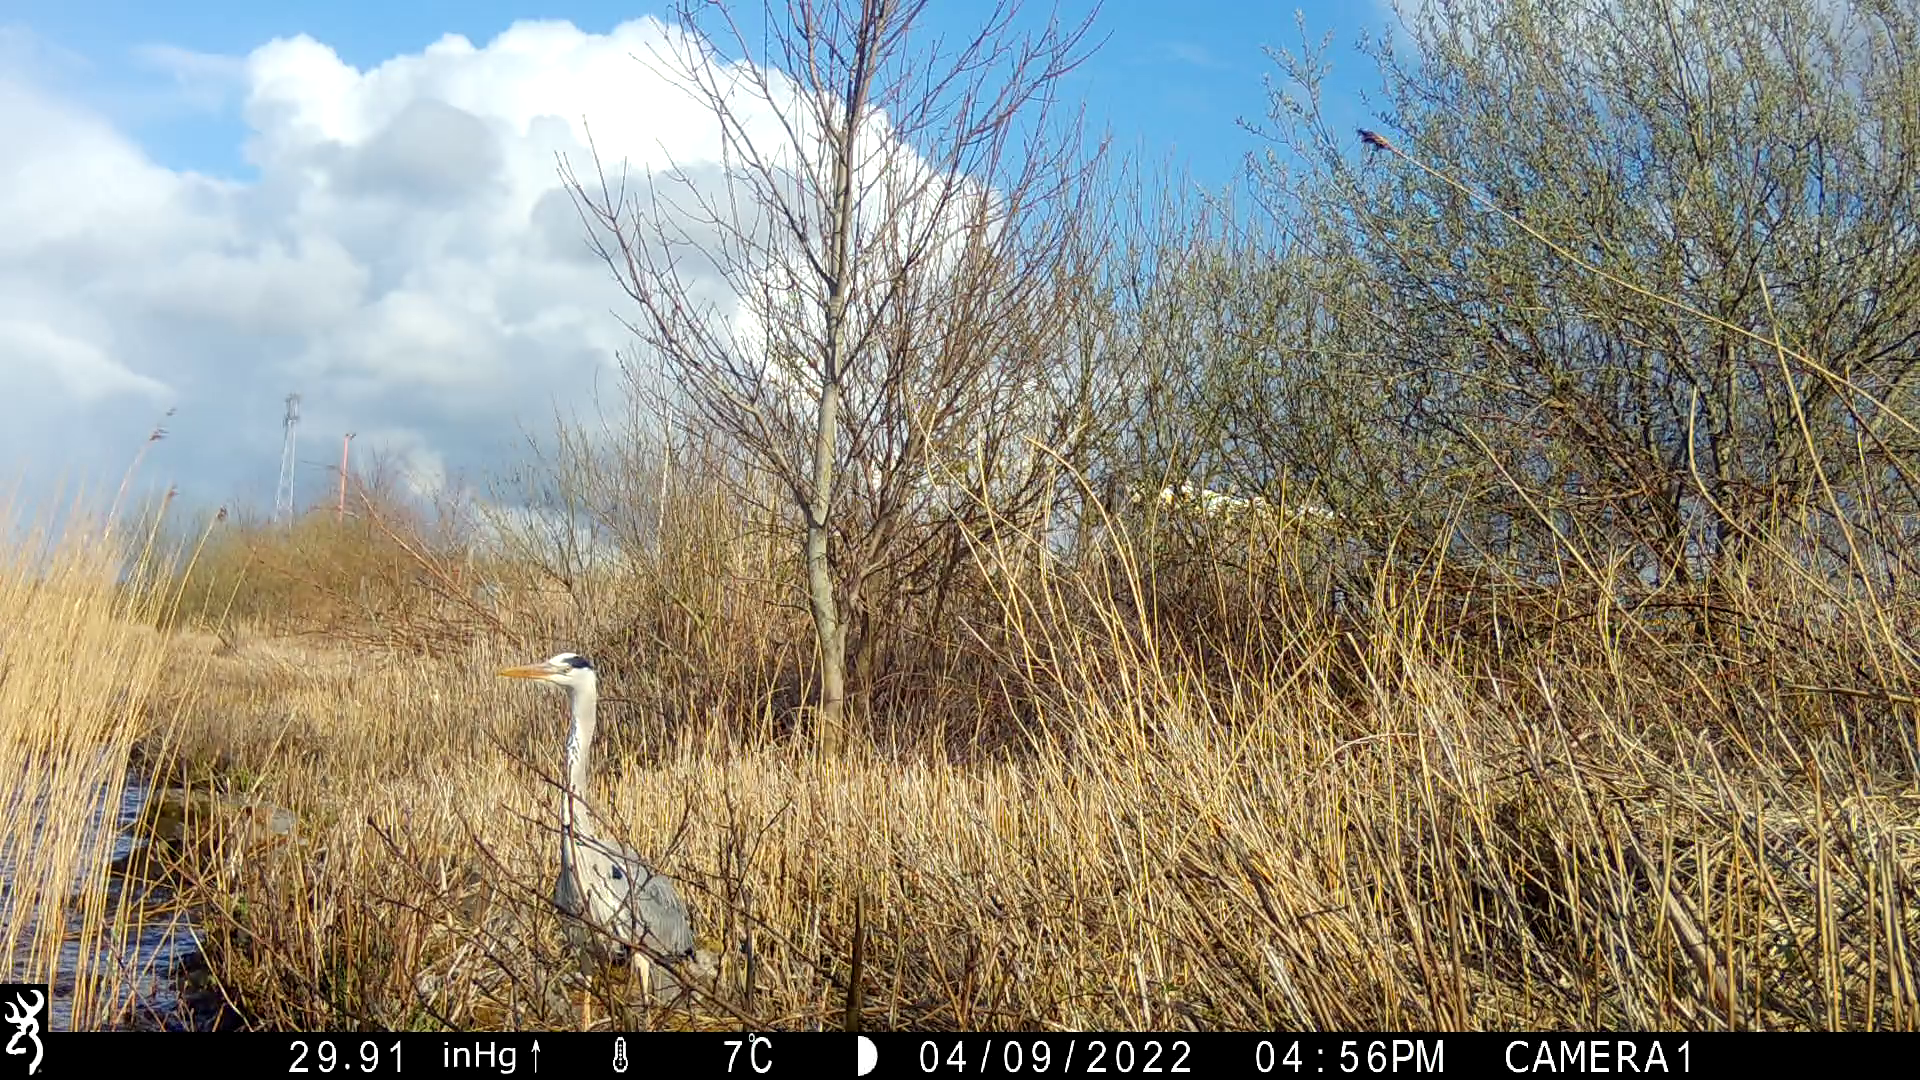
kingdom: Animalia
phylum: Chordata
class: Aves
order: Pelecaniformes
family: Ardeidae
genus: Ardea
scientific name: Ardea cinerea
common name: Grey heron
